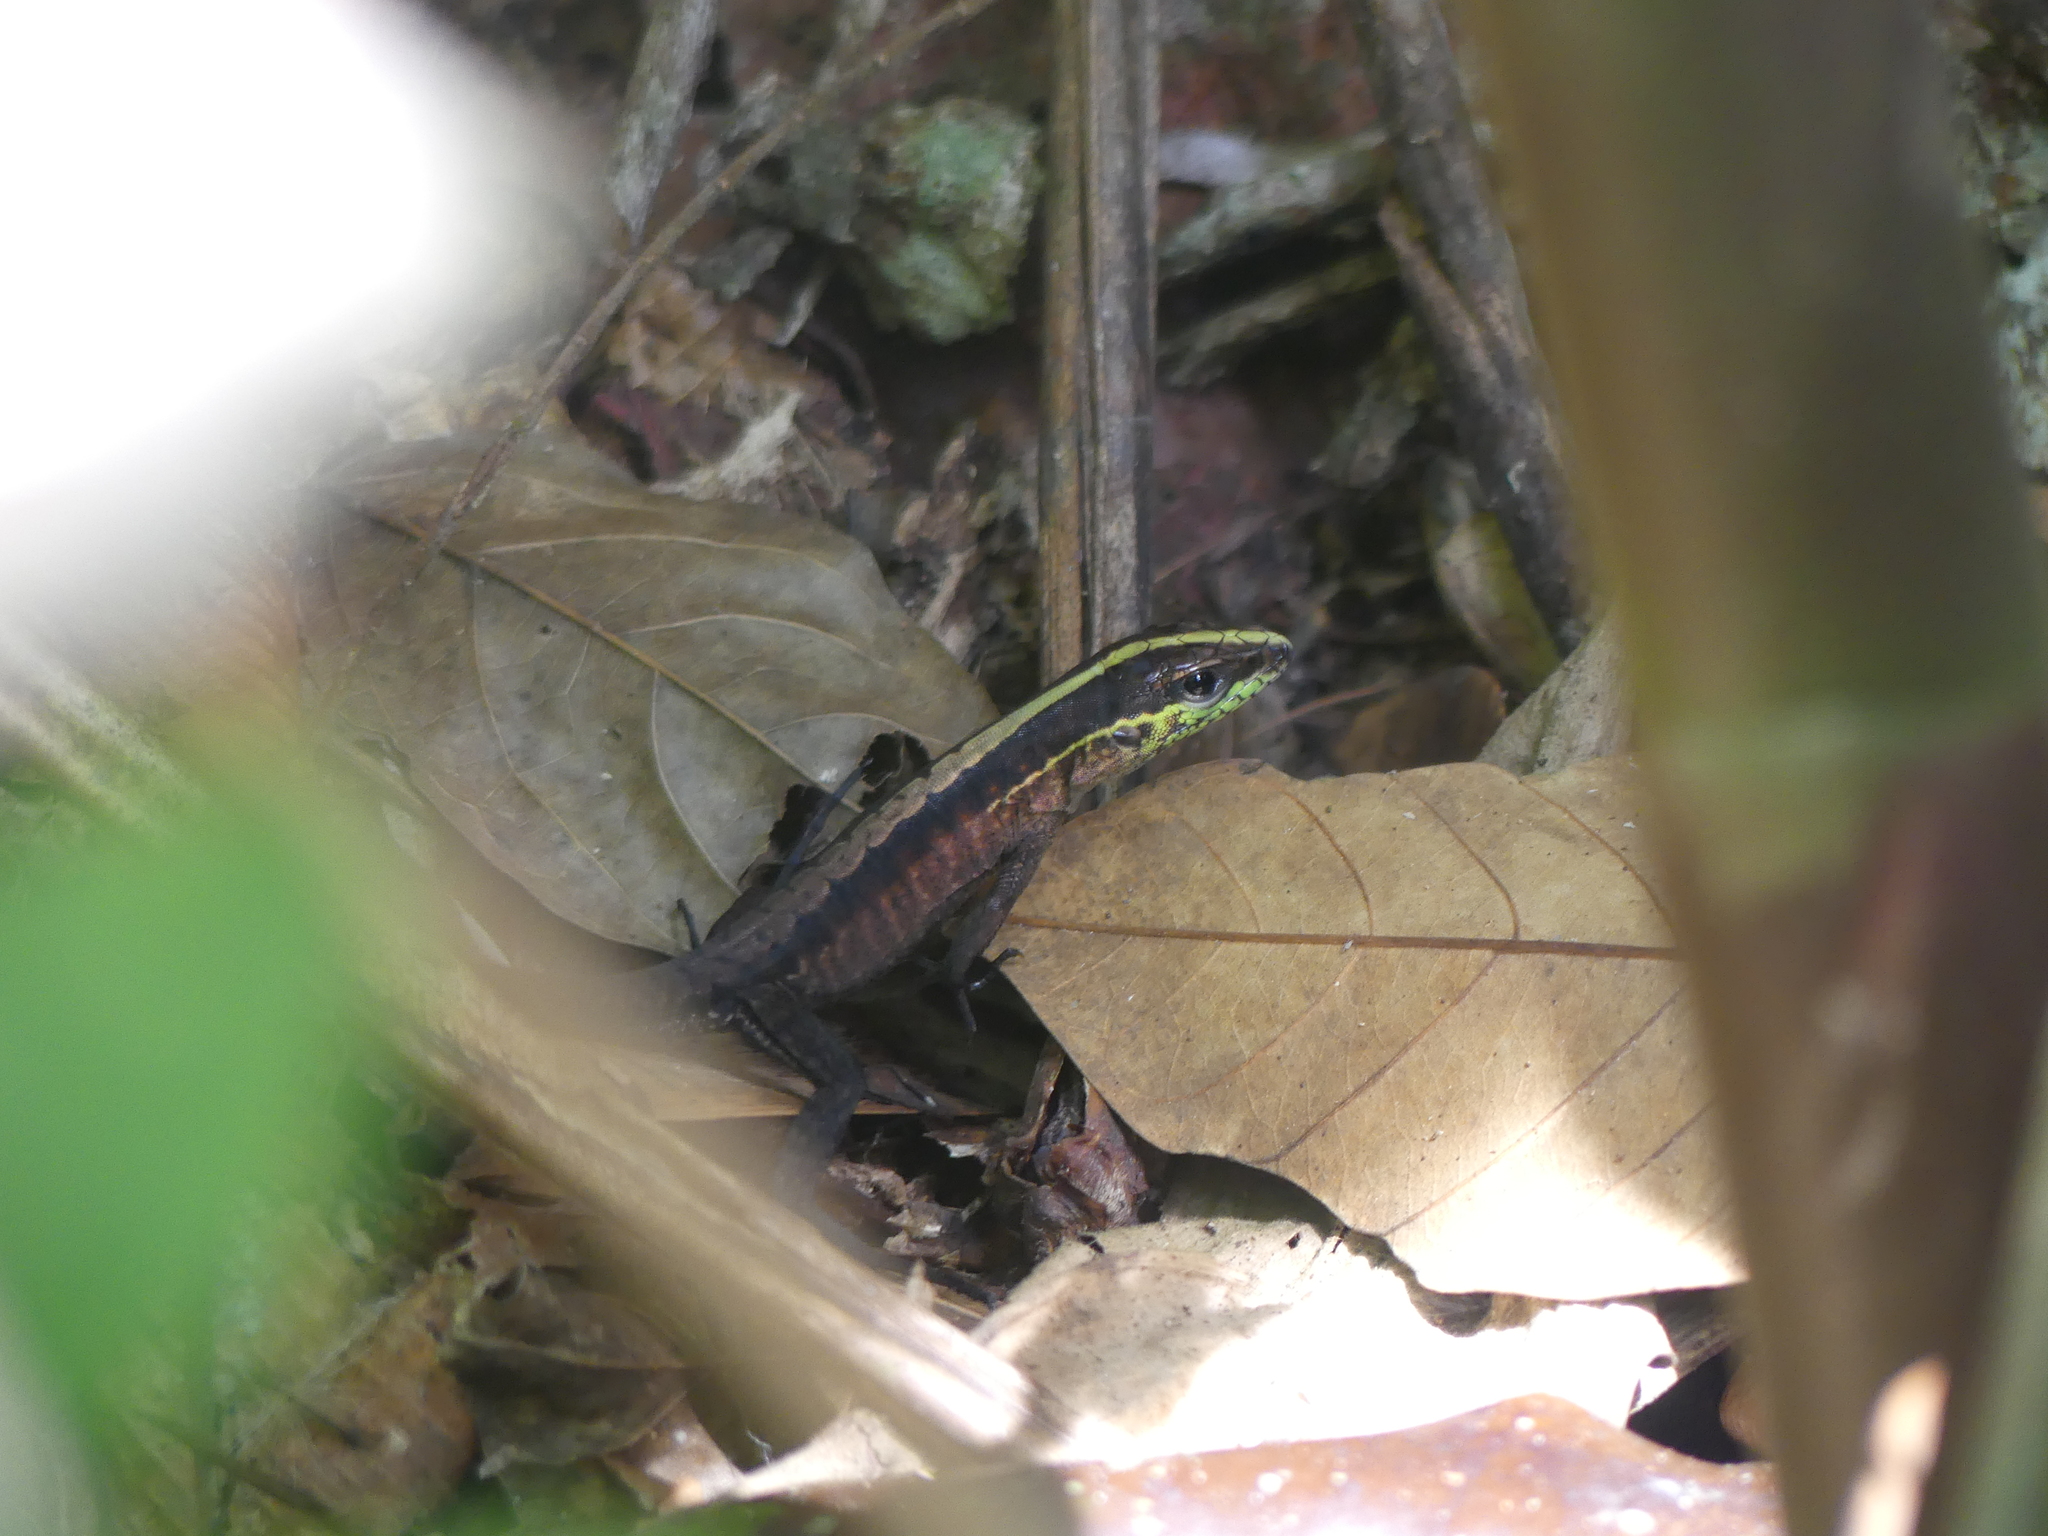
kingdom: Animalia
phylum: Chordata
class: Squamata
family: Teiidae
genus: Kentropyx
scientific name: Kentropyx pelviceps
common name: Forest whiptail
